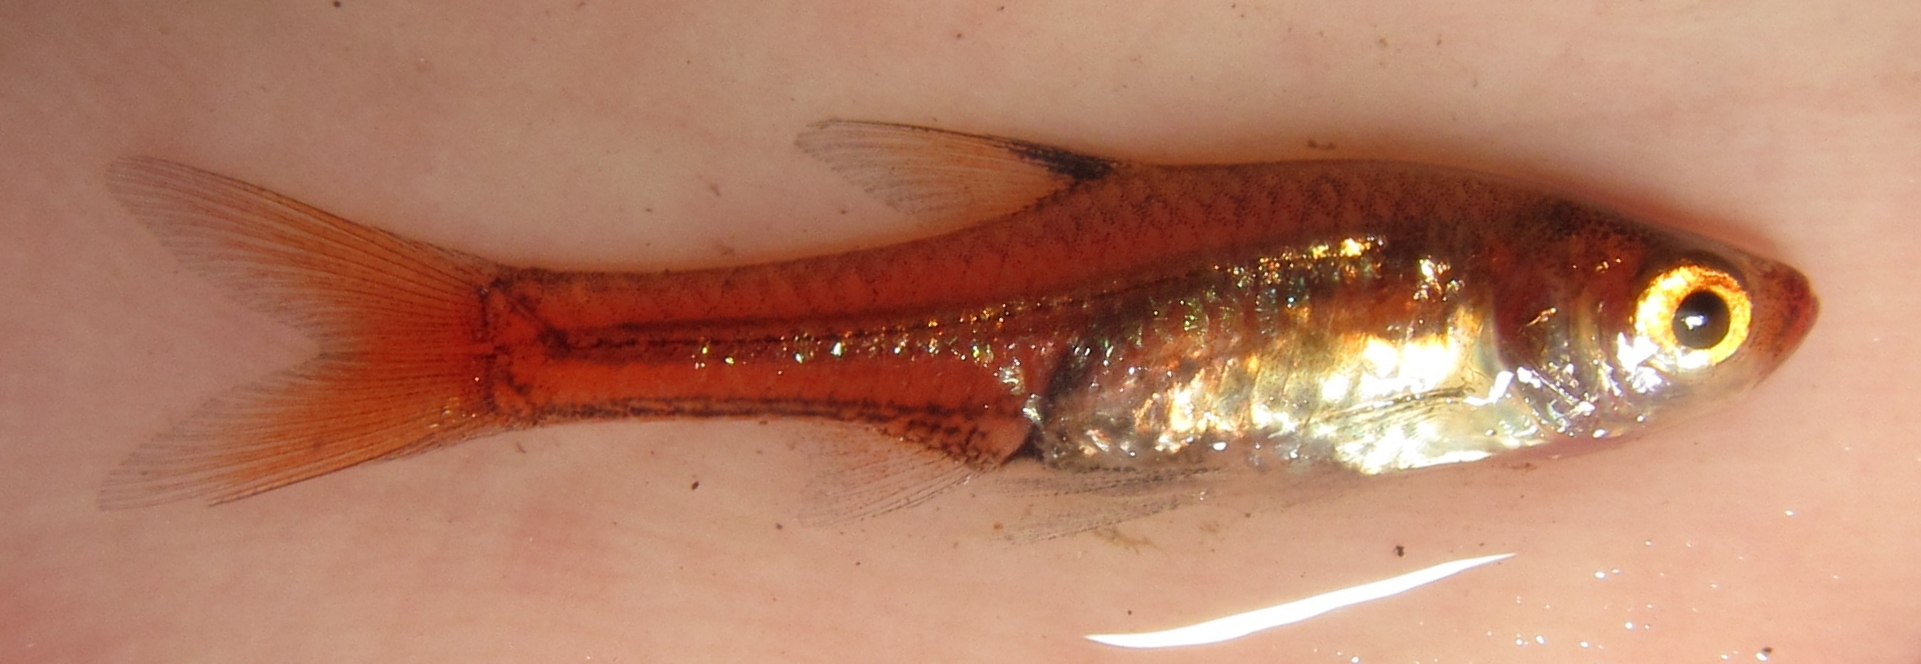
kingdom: Animalia
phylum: Chordata
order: Cypriniformes
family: Cyprinidae
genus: Coptostomabarbus
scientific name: Coptostomabarbus wittei
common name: Upjaw barb
